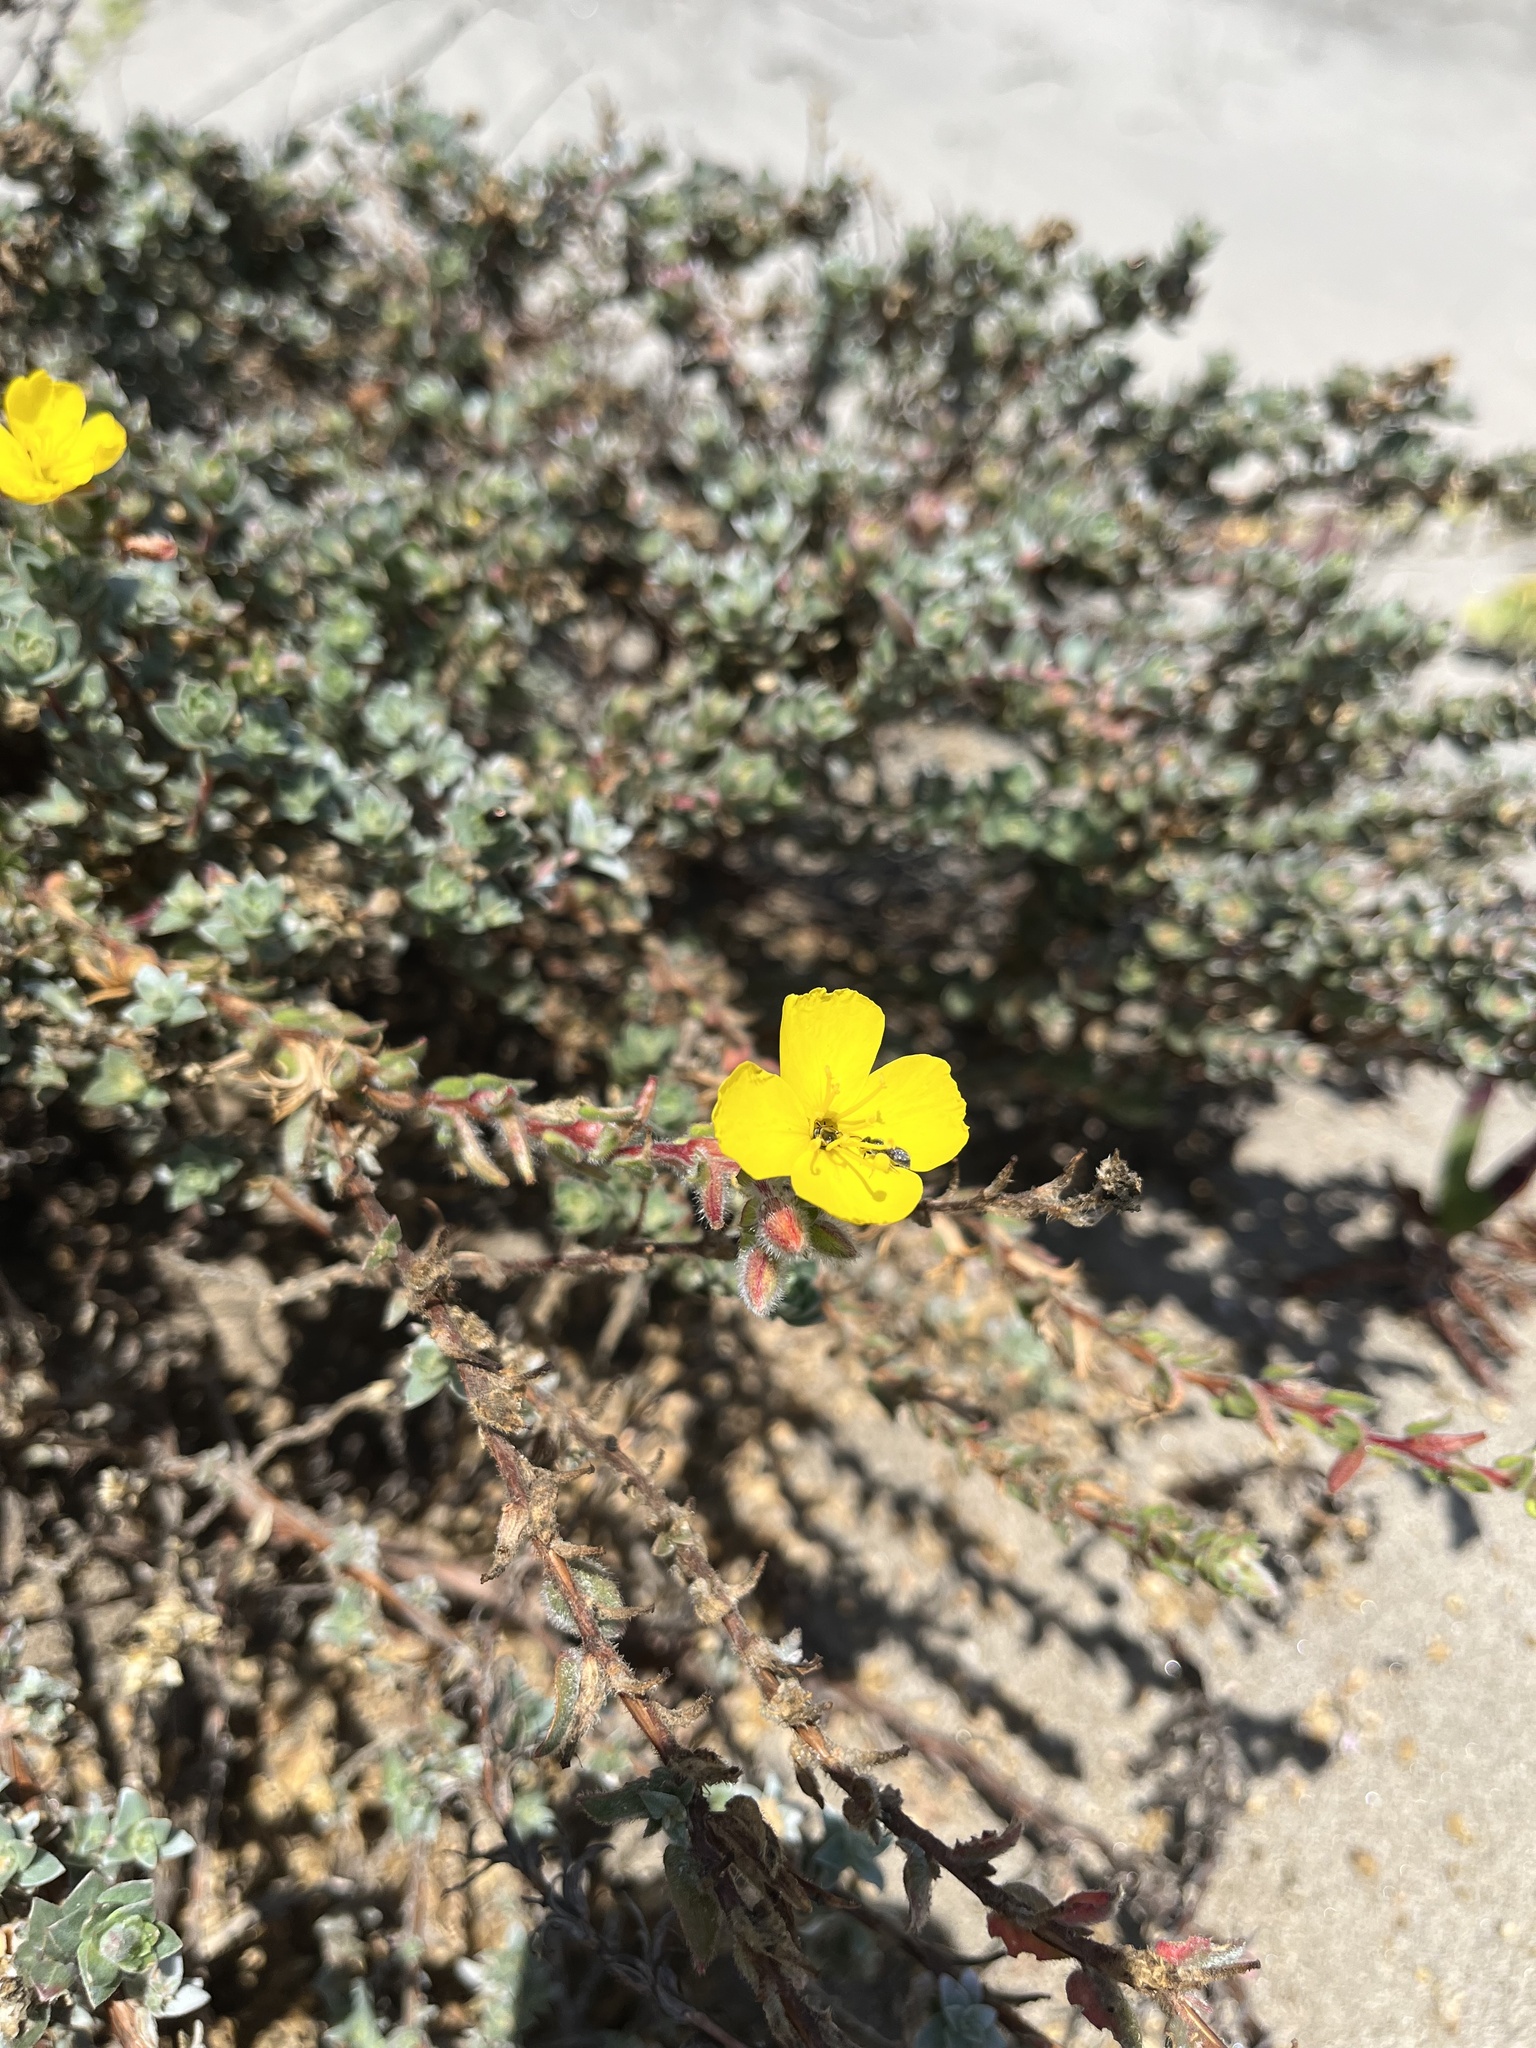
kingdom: Plantae
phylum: Tracheophyta
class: Magnoliopsida
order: Myrtales
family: Onagraceae
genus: Camissoniopsis
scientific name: Camissoniopsis cheiranthifolia
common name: Beach suncup
